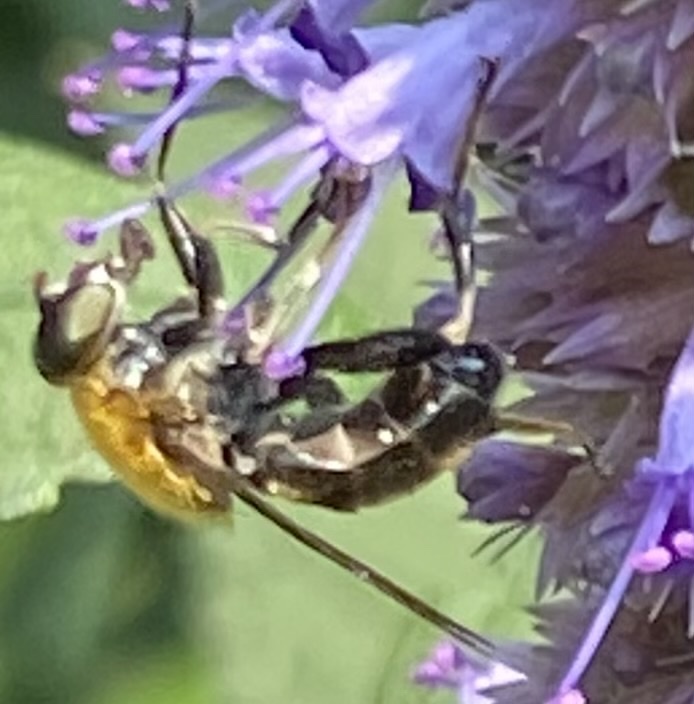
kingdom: Animalia
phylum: Arthropoda
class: Insecta
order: Diptera
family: Syrphidae
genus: Pterallastes
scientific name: Pterallastes thoracicus
